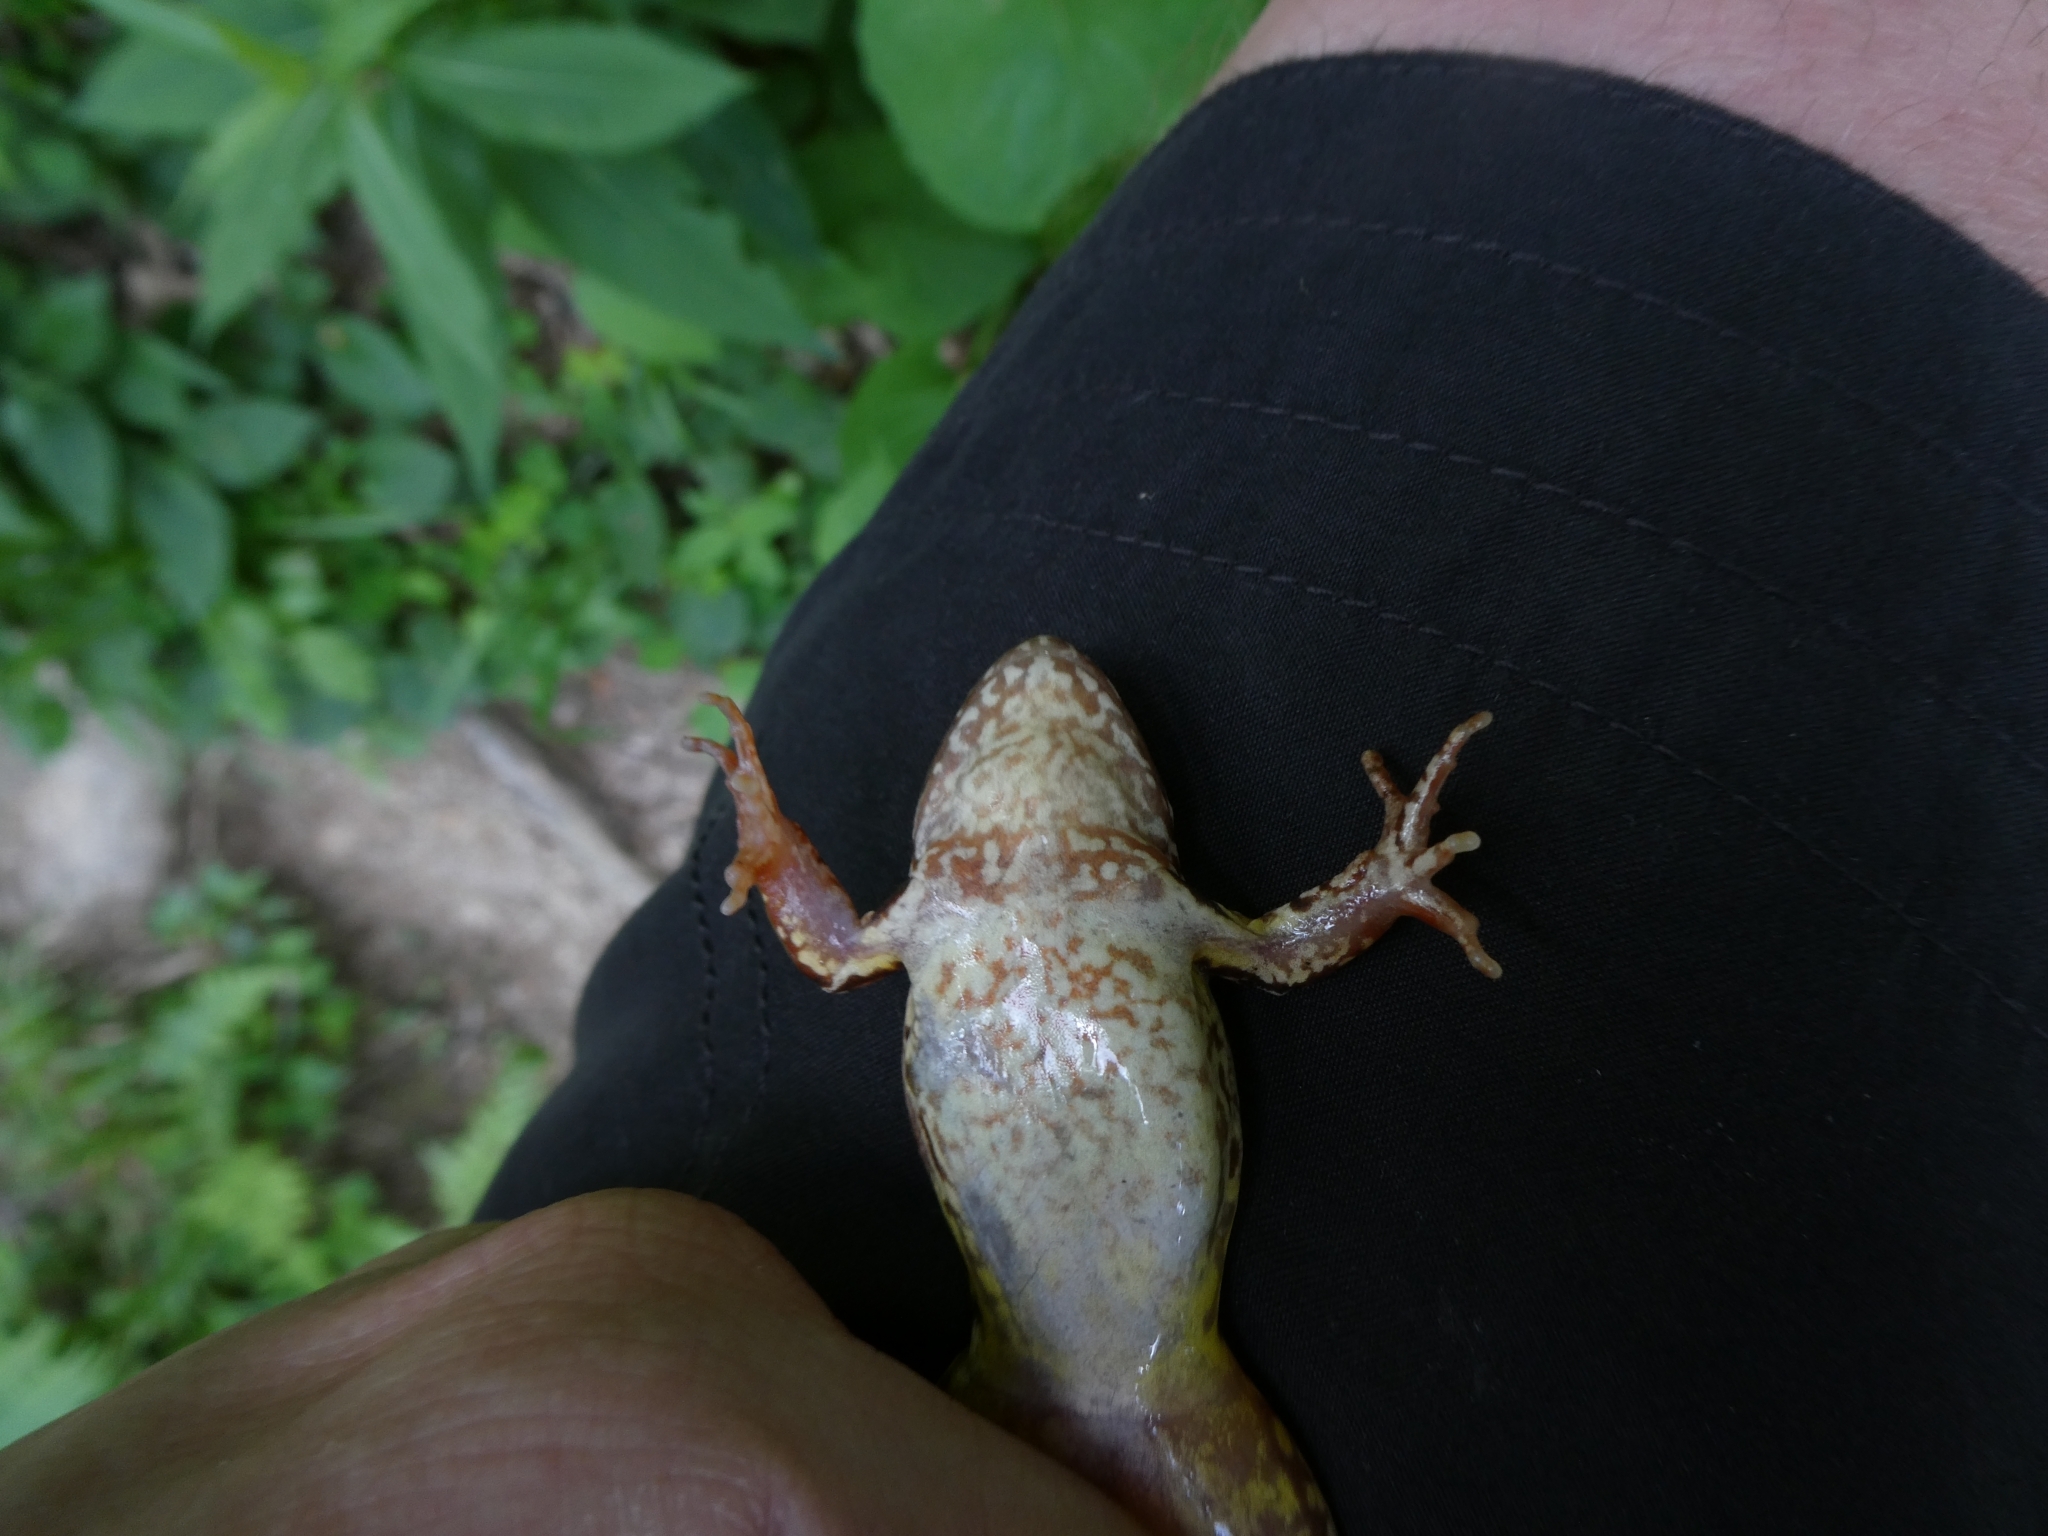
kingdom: Animalia
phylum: Chordata
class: Amphibia
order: Anura
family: Ranidae
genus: Rana
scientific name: Rana temporaria
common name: Common frog
